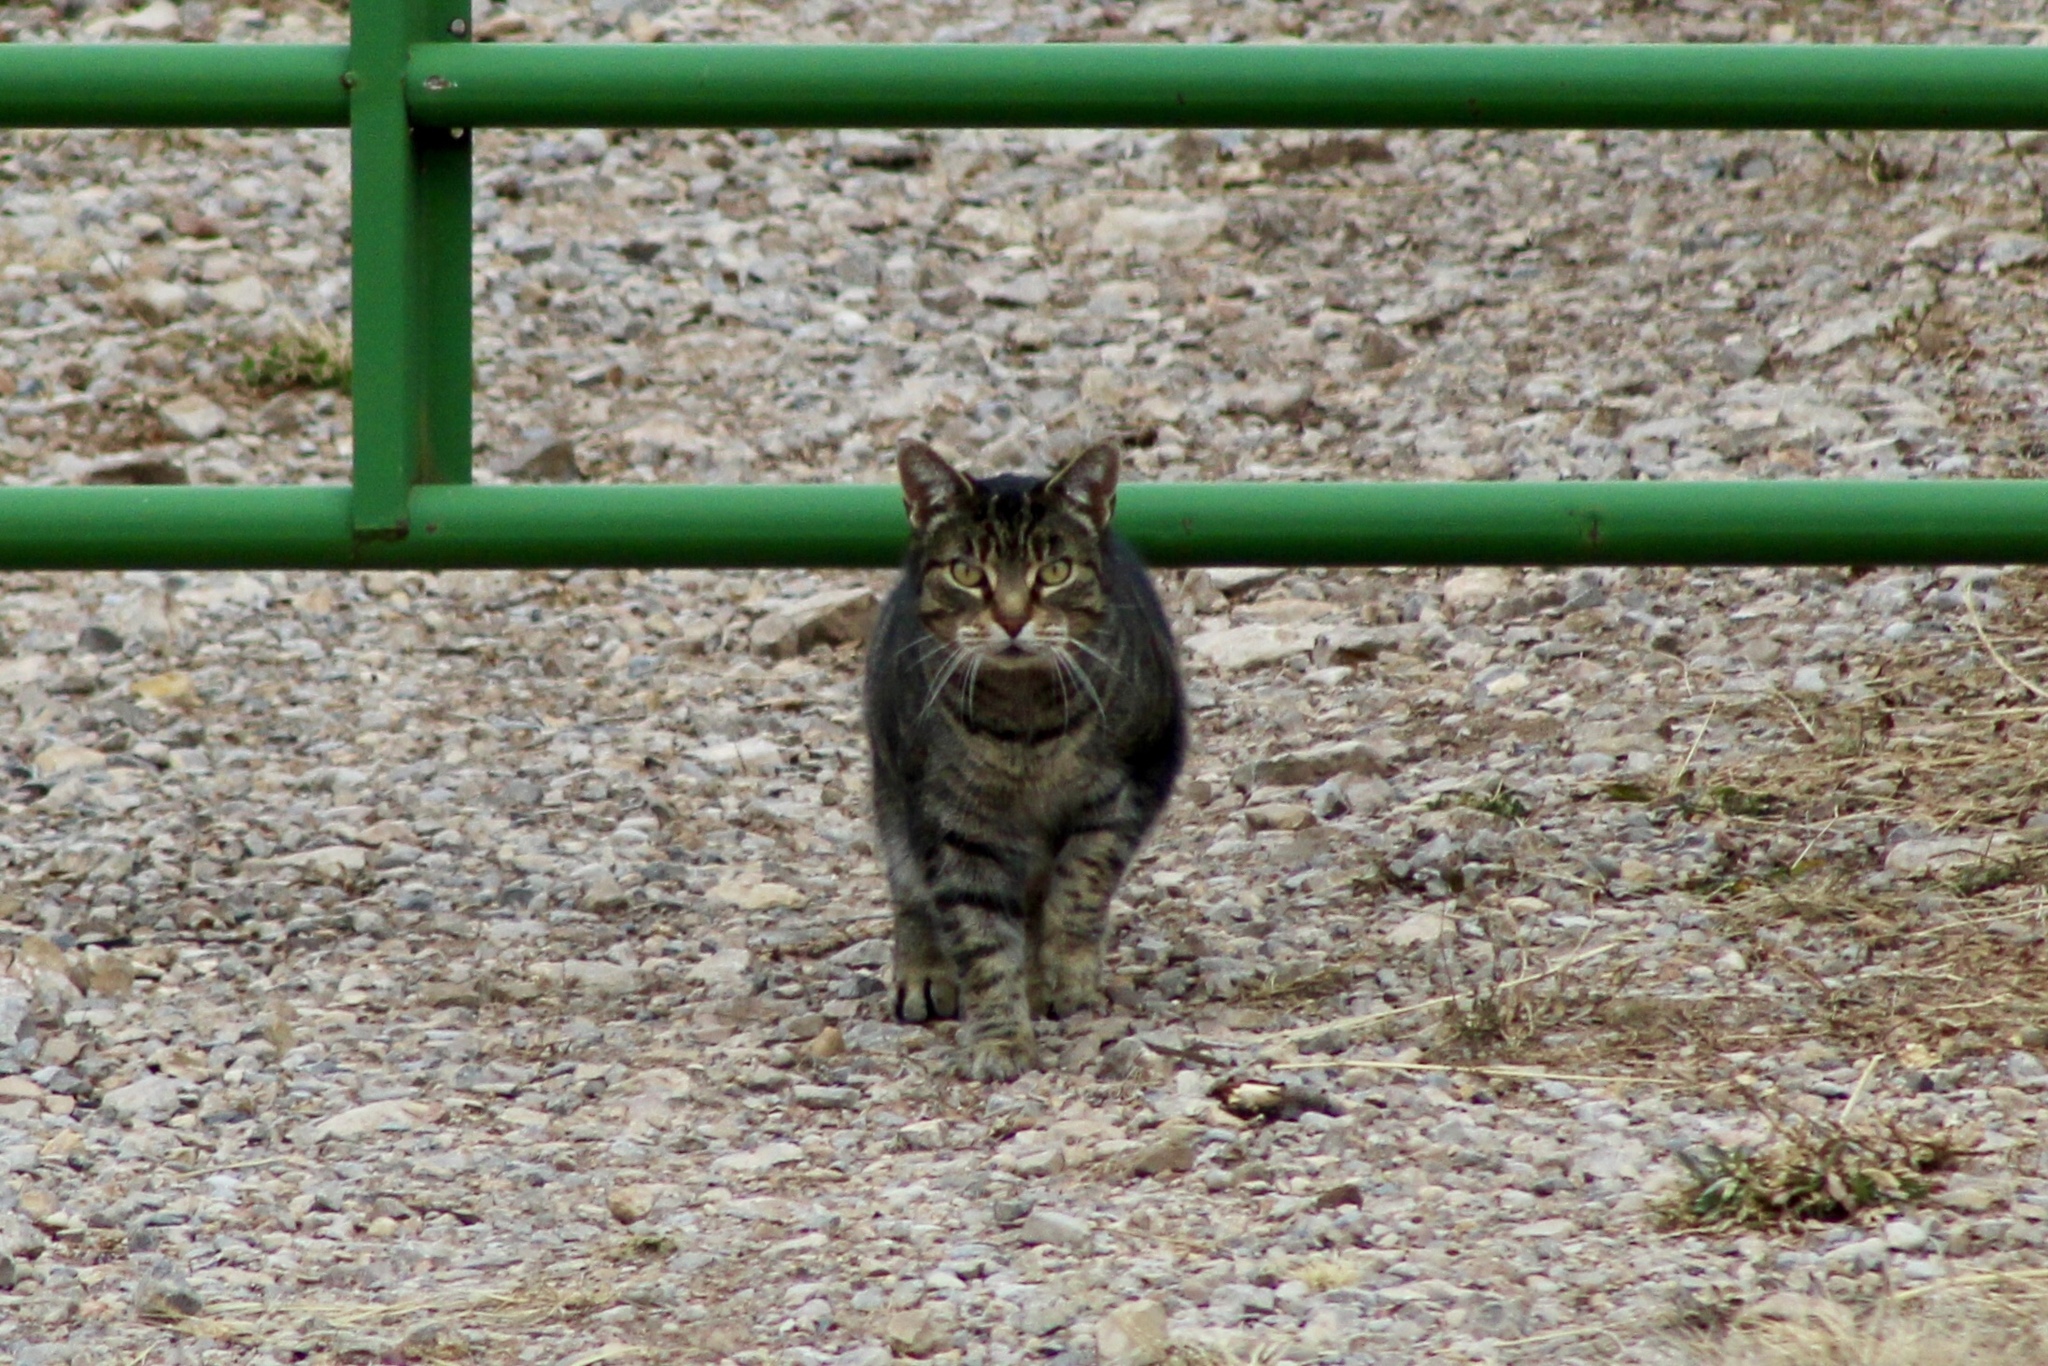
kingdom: Animalia
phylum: Chordata
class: Mammalia
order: Carnivora
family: Felidae
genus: Felis
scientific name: Felis catus
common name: Domestic cat
